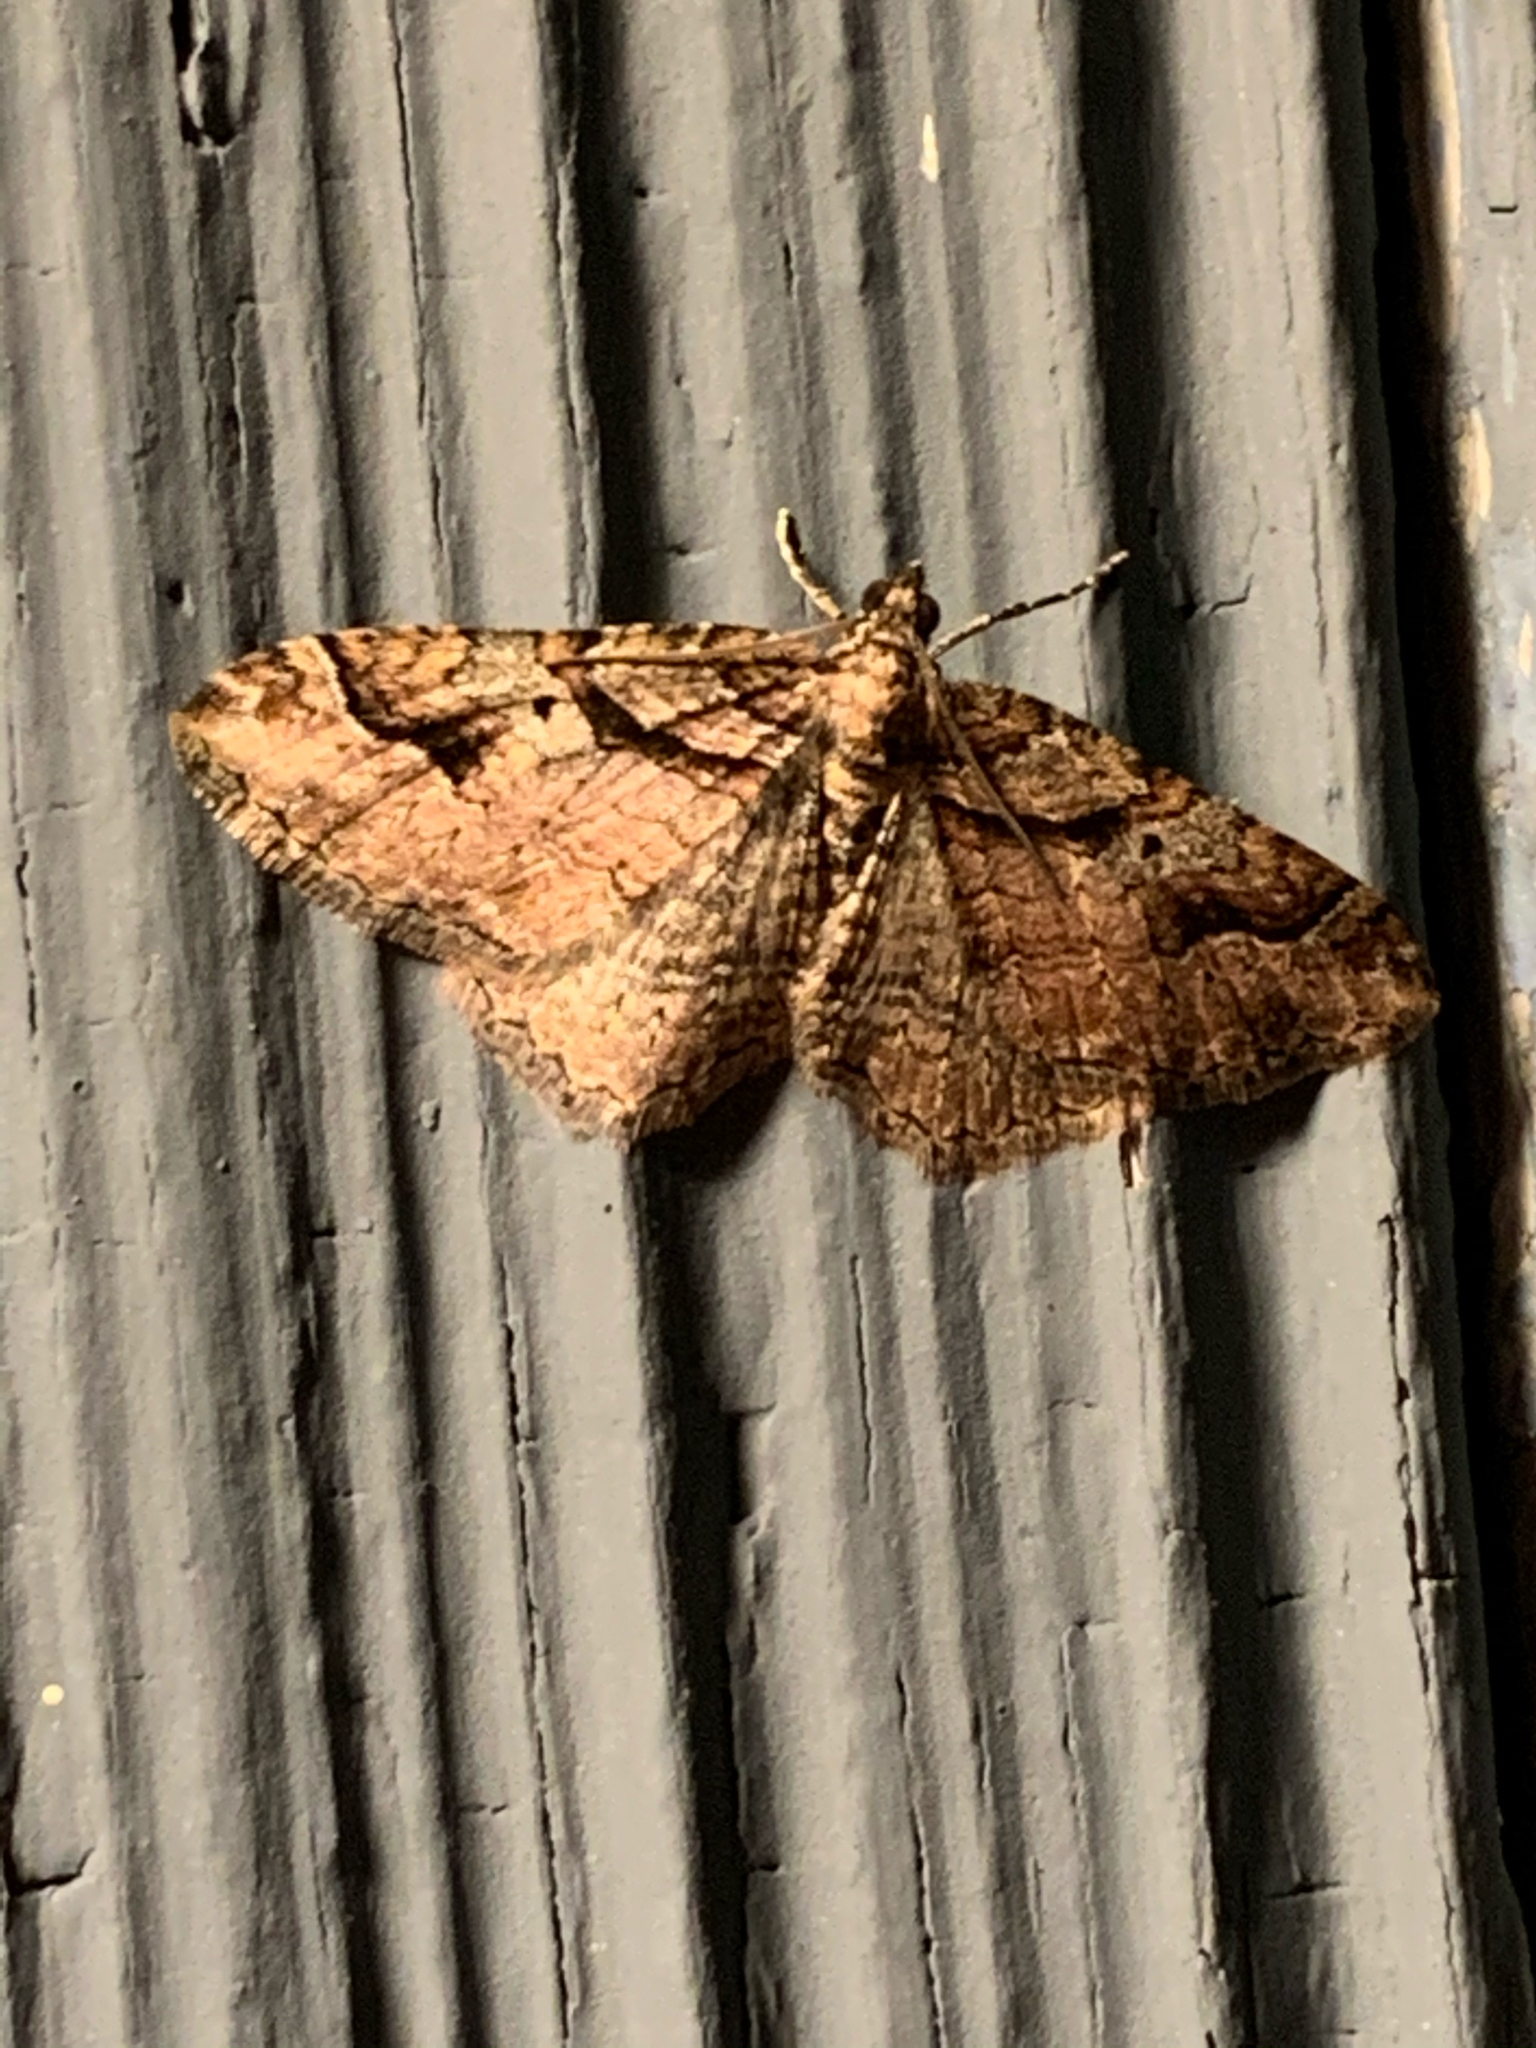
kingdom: Animalia
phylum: Arthropoda
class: Insecta
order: Lepidoptera
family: Geometridae
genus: Costaconvexa
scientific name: Costaconvexa centrostrigaria
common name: Bent-line carpet
